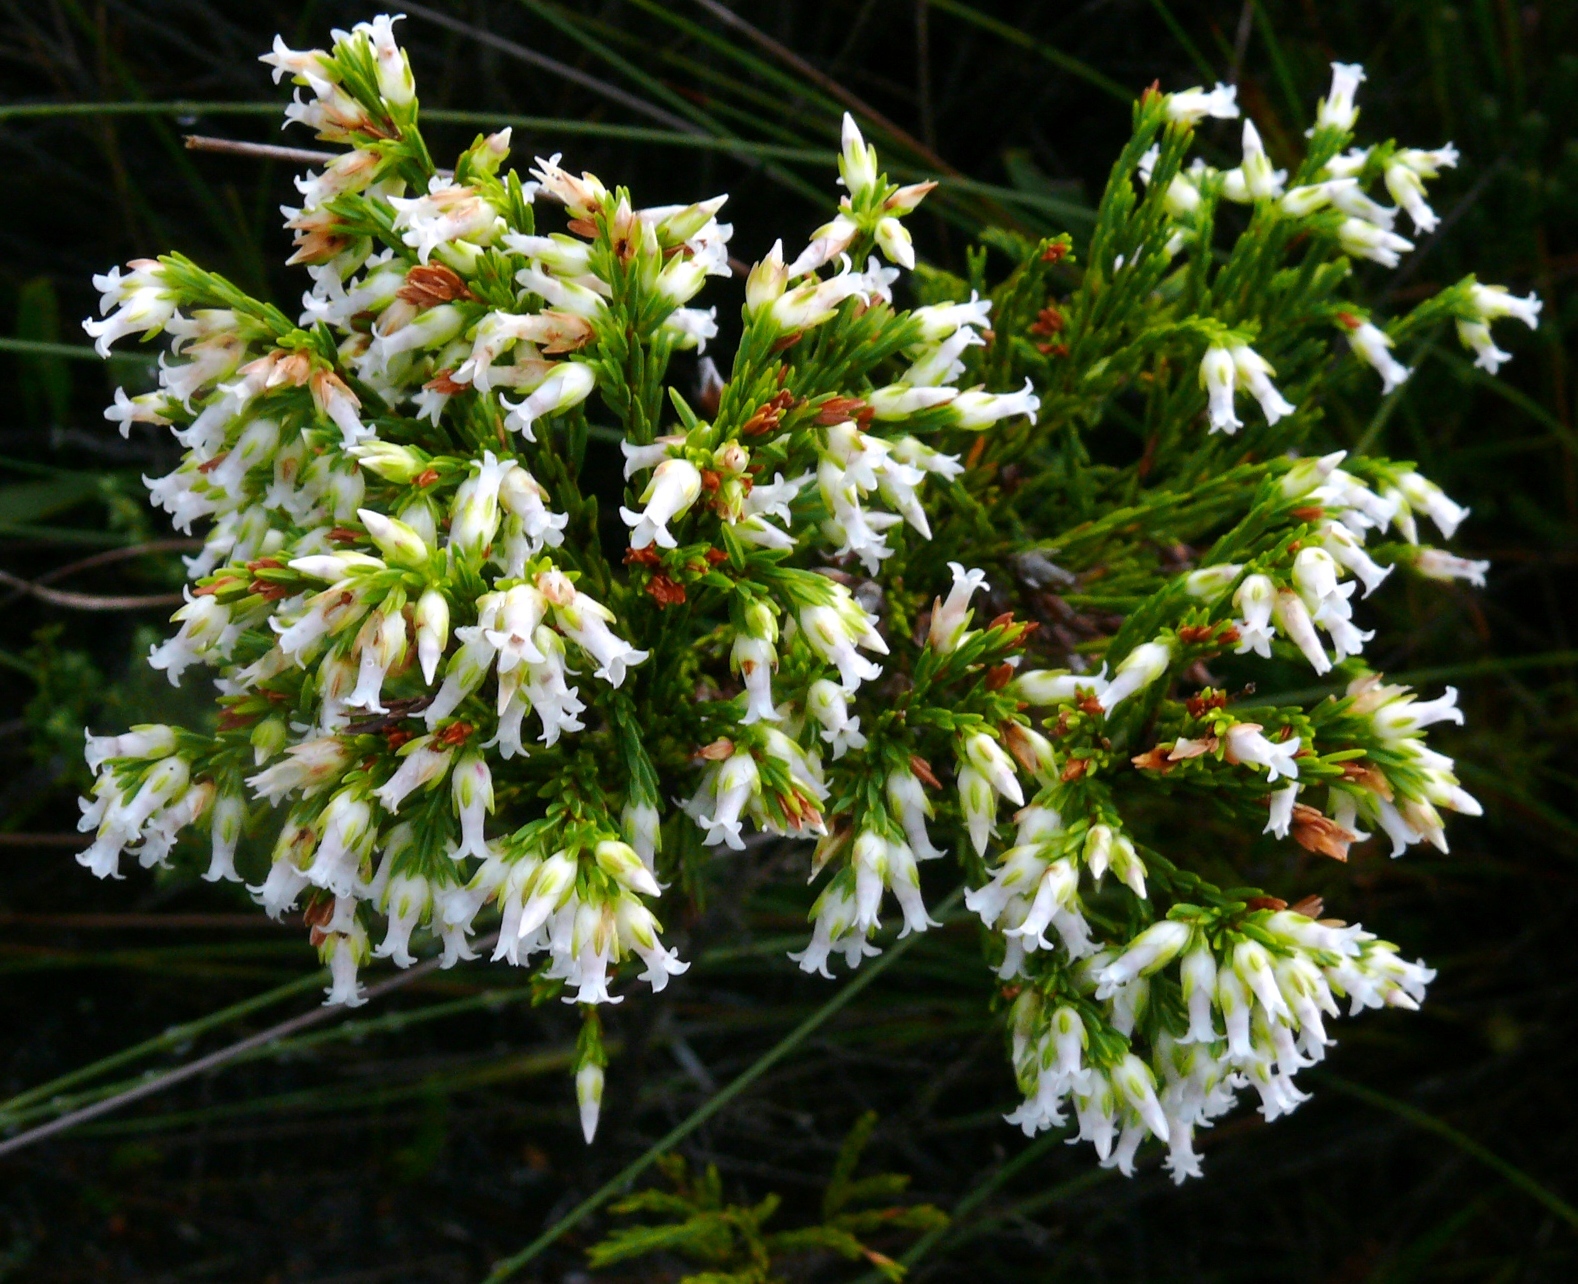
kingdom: Plantae
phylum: Tracheophyta
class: Magnoliopsida
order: Ericales
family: Ericaceae
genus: Erica
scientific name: Erica lutea
